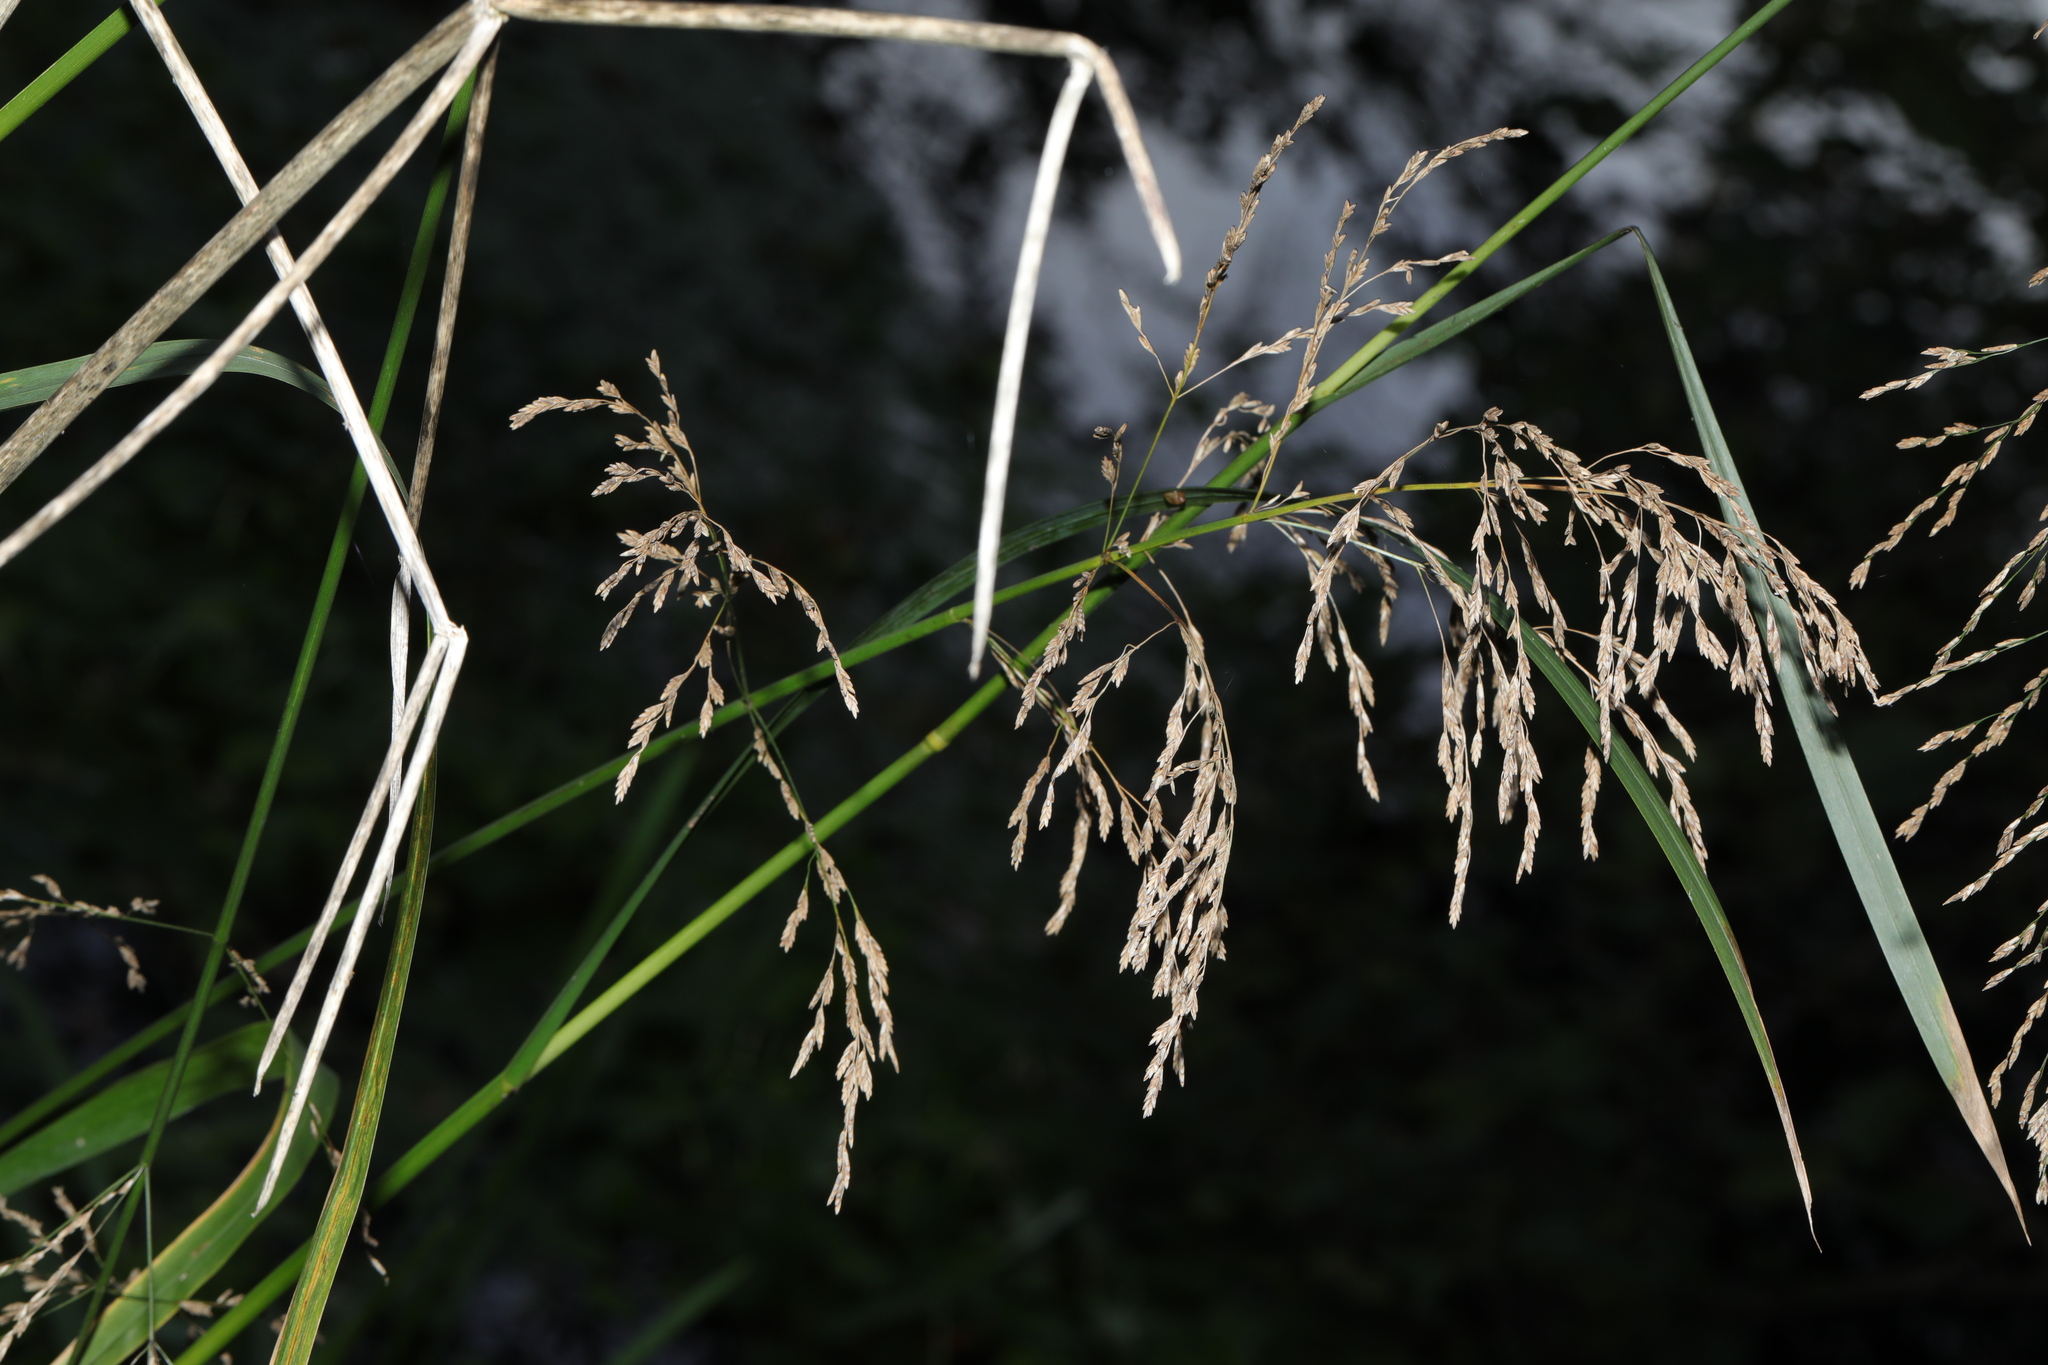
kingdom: Plantae
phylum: Tracheophyta
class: Liliopsida
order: Poales
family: Poaceae
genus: Glyceria
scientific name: Glyceria maxima
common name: Reed mannagrass
